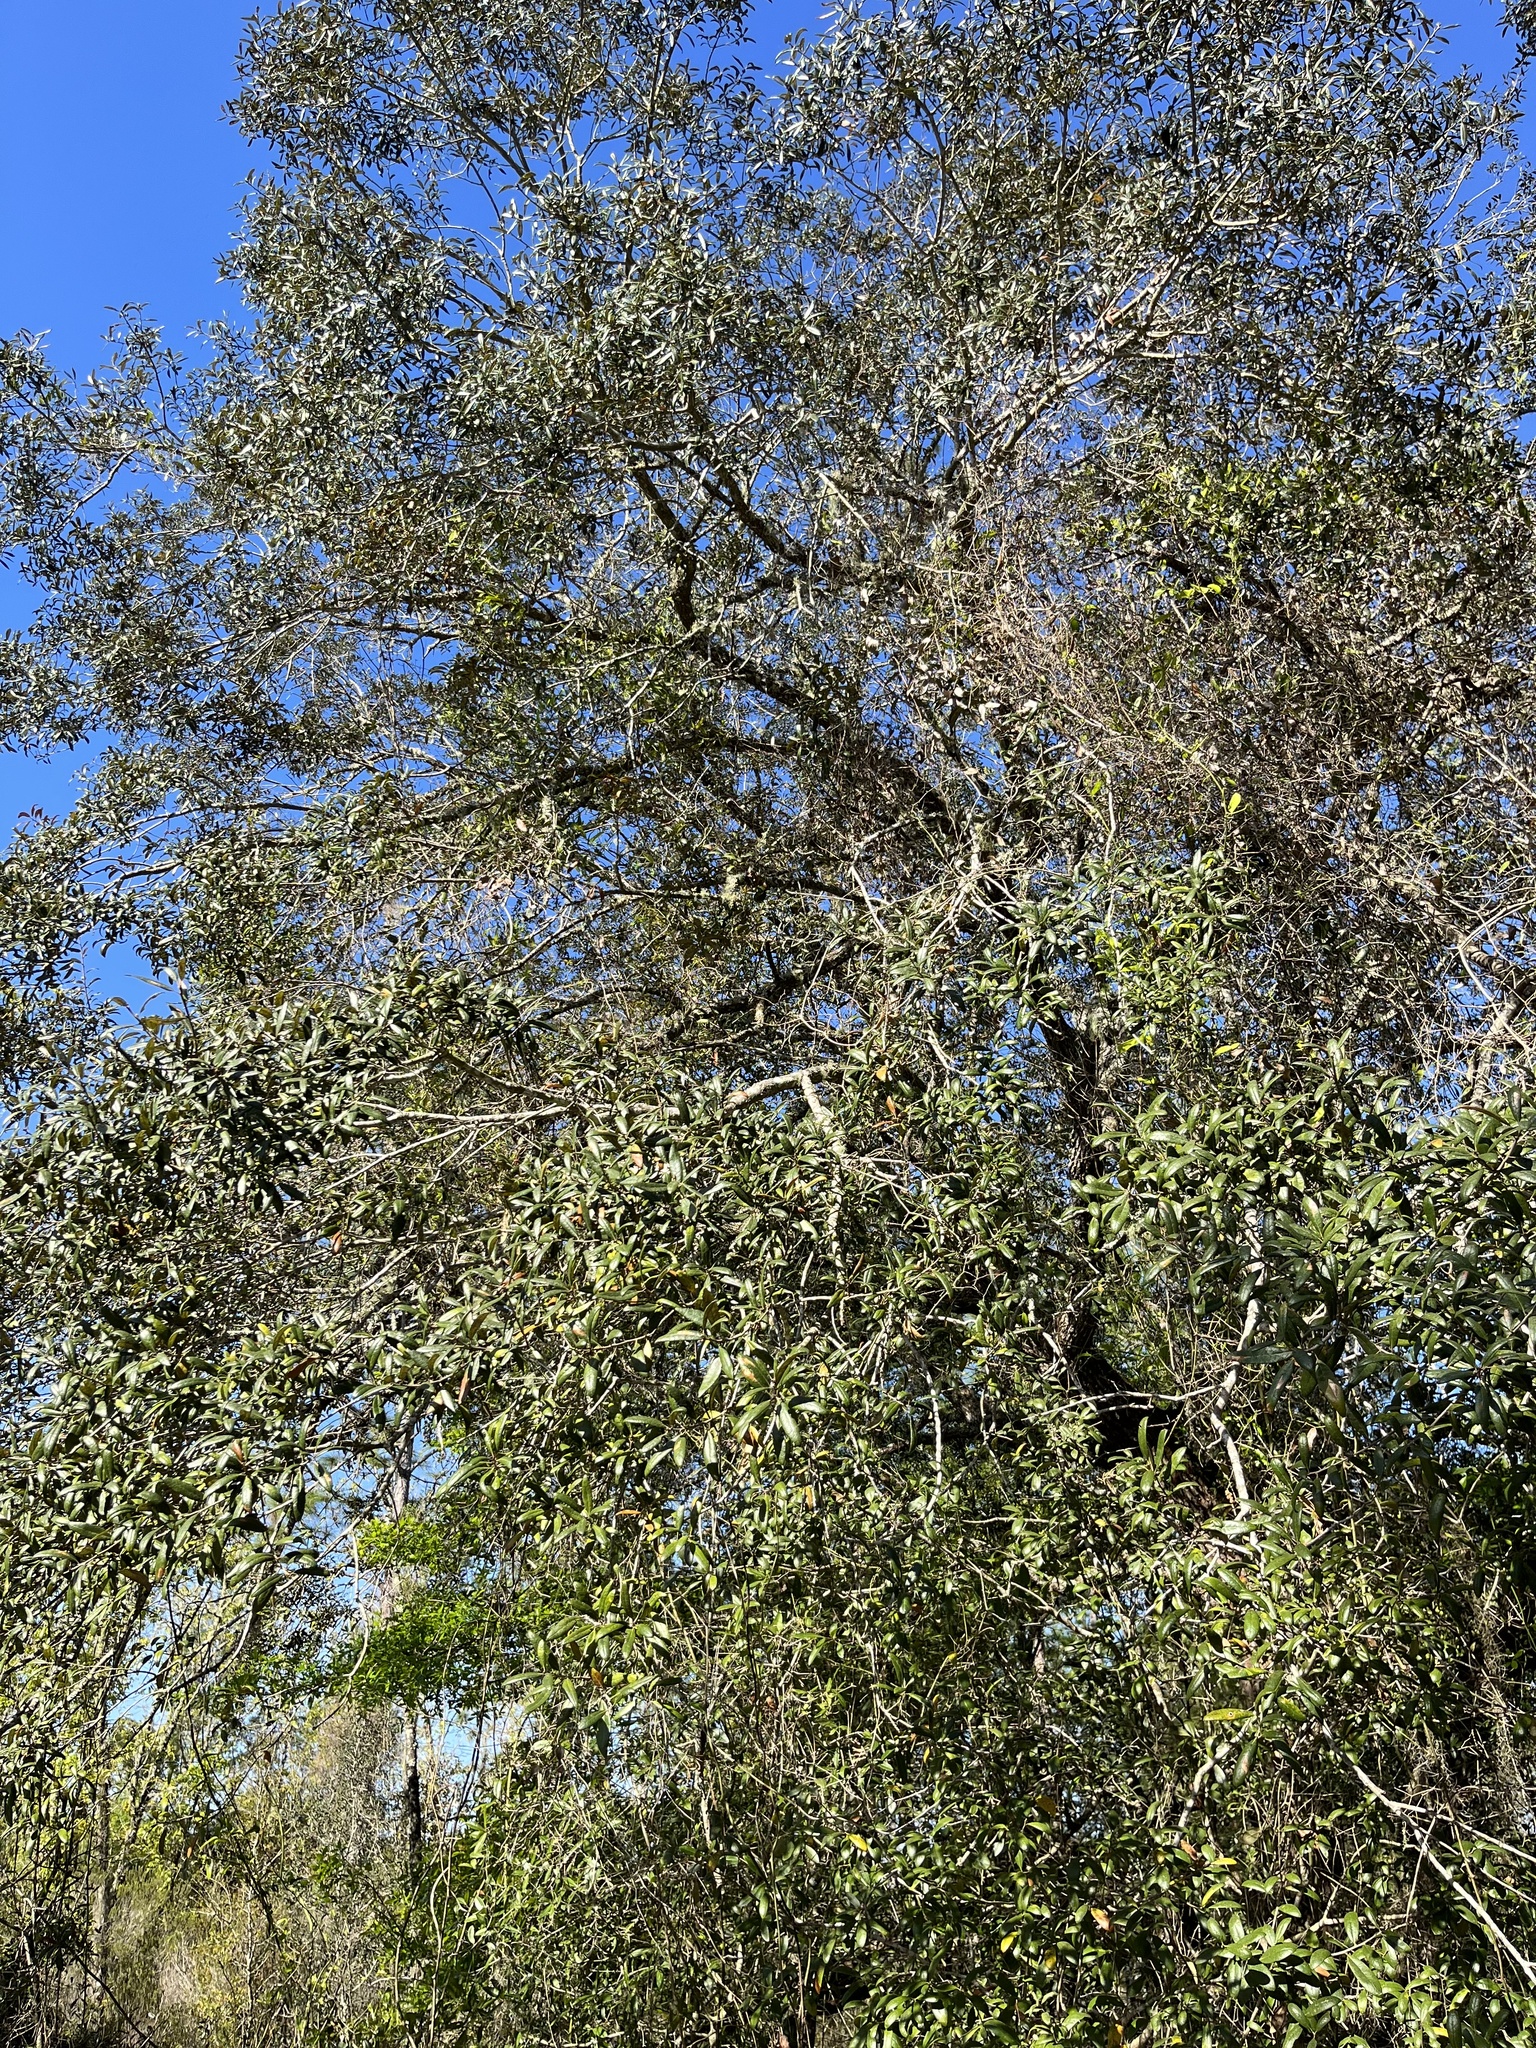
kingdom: Plantae
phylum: Tracheophyta
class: Magnoliopsida
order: Fagales
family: Fagaceae
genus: Quercus
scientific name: Quercus geminata
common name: Sand live oak
